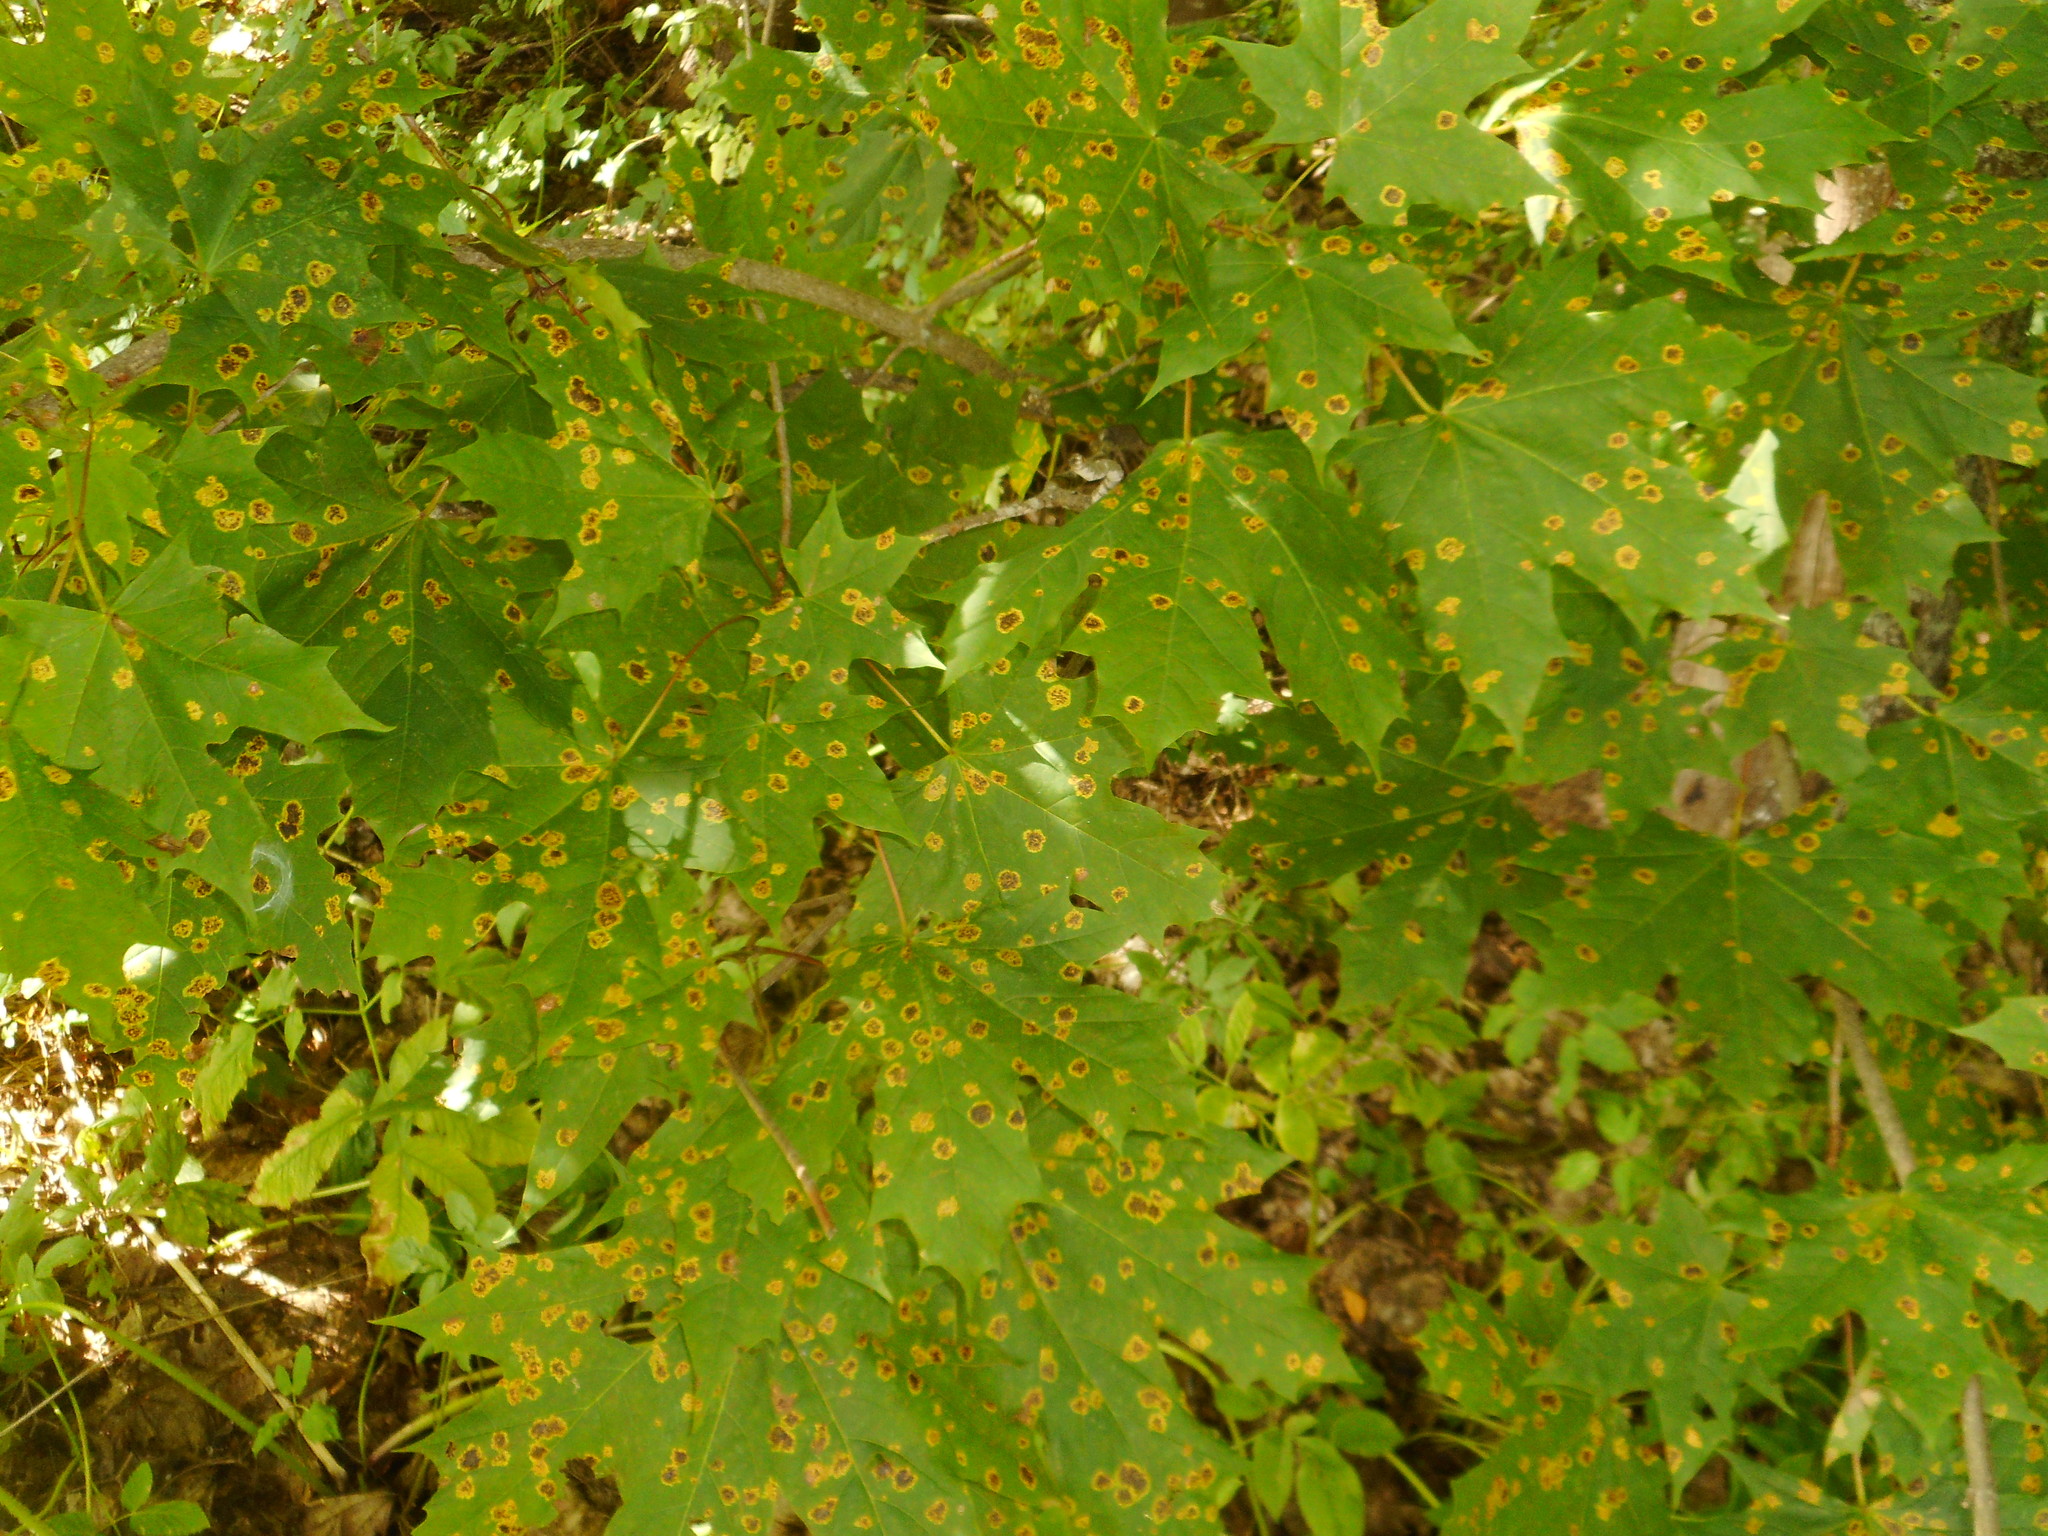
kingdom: Fungi
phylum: Ascomycota
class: Leotiomycetes
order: Rhytismatales
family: Rhytismataceae
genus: Rhytisma
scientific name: Rhytisma acerinum
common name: European tar spot
